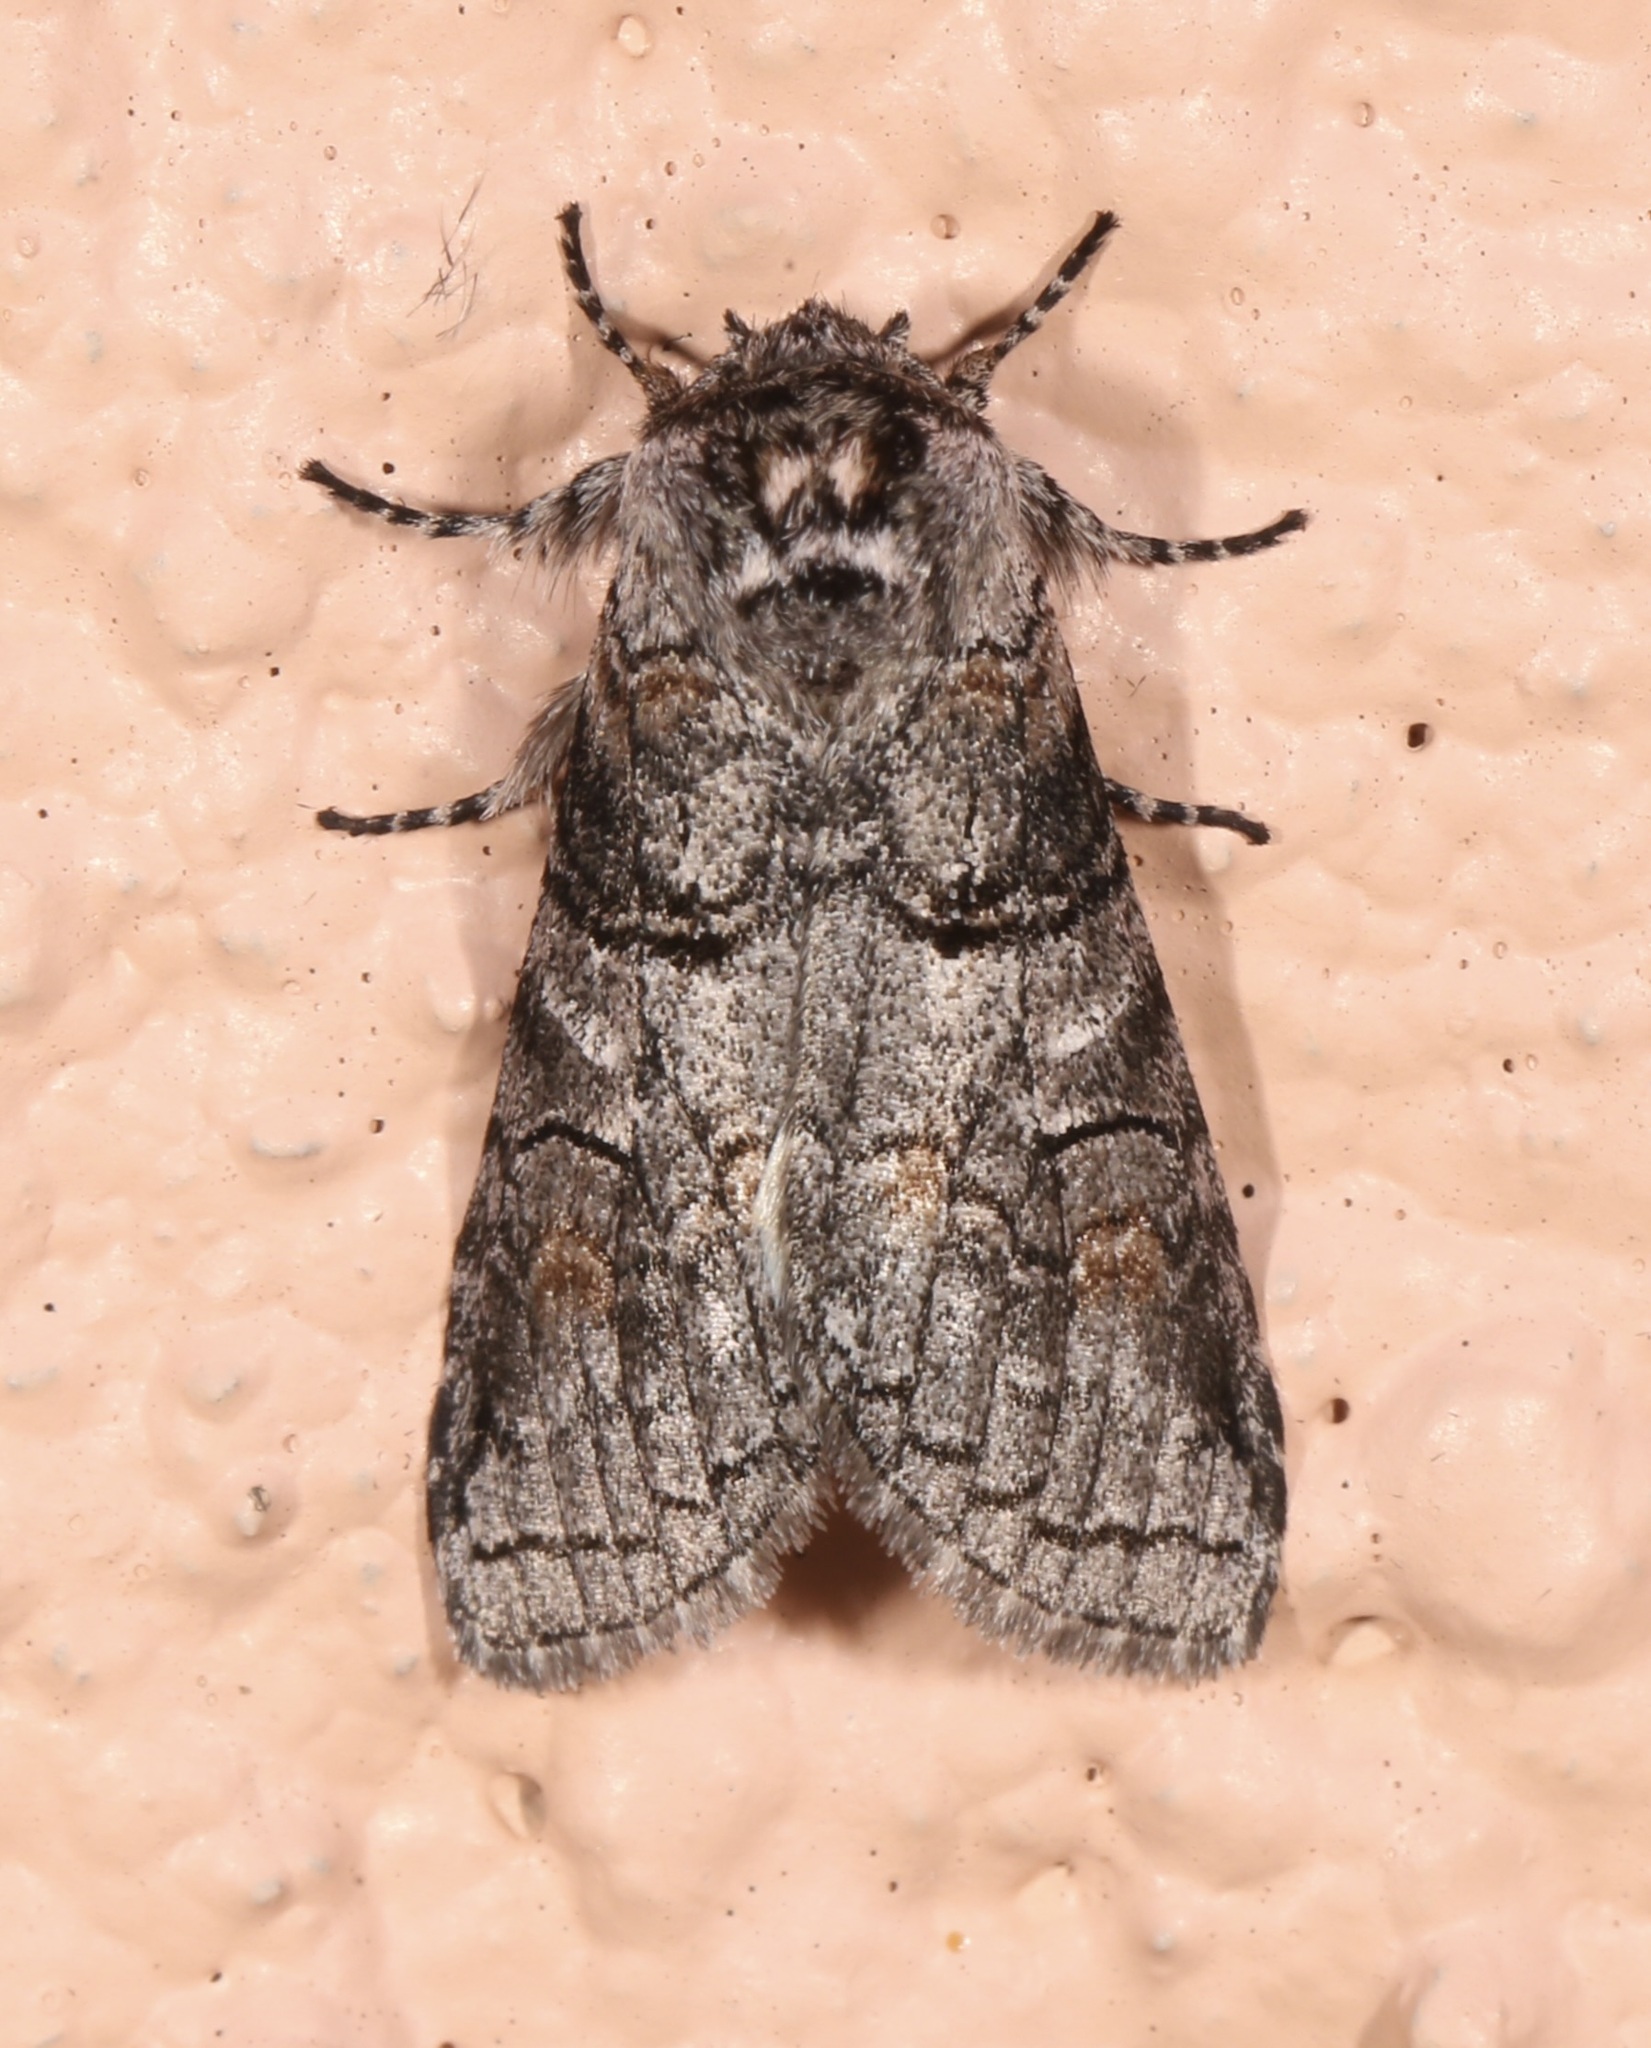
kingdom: Animalia
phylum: Arthropoda
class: Insecta
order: Lepidoptera
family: Notodontidae
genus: Afilia
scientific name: Afilia oslari
